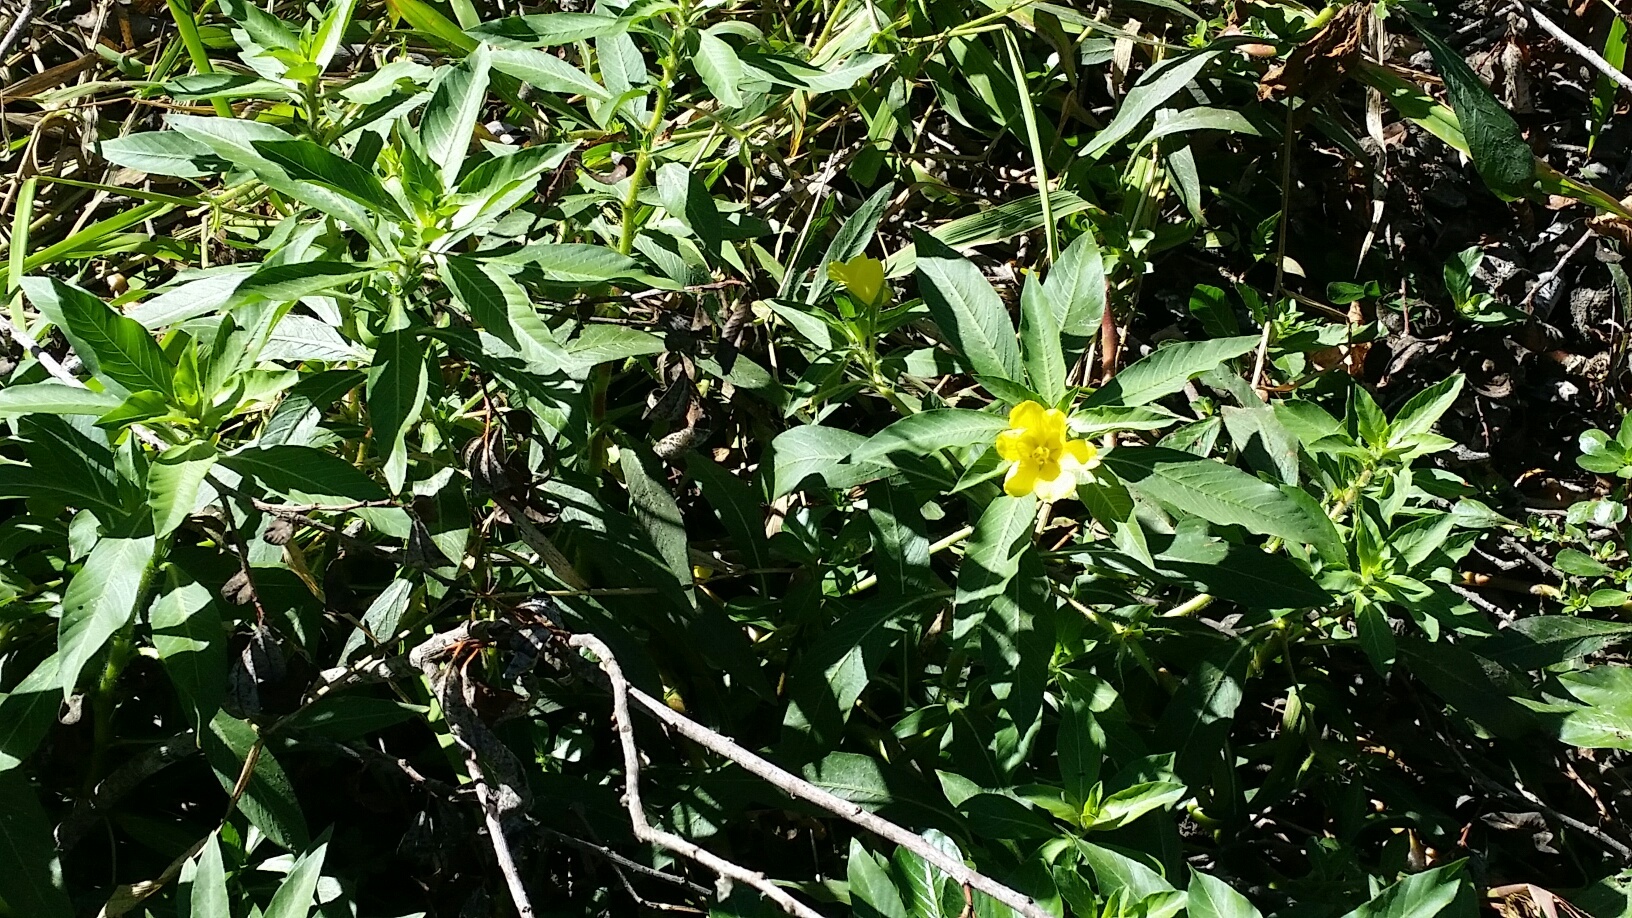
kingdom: Plantae
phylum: Tracheophyta
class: Magnoliopsida
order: Myrtales
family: Onagraceae
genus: Ludwigia
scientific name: Ludwigia hexapetala
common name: Water-primrose
